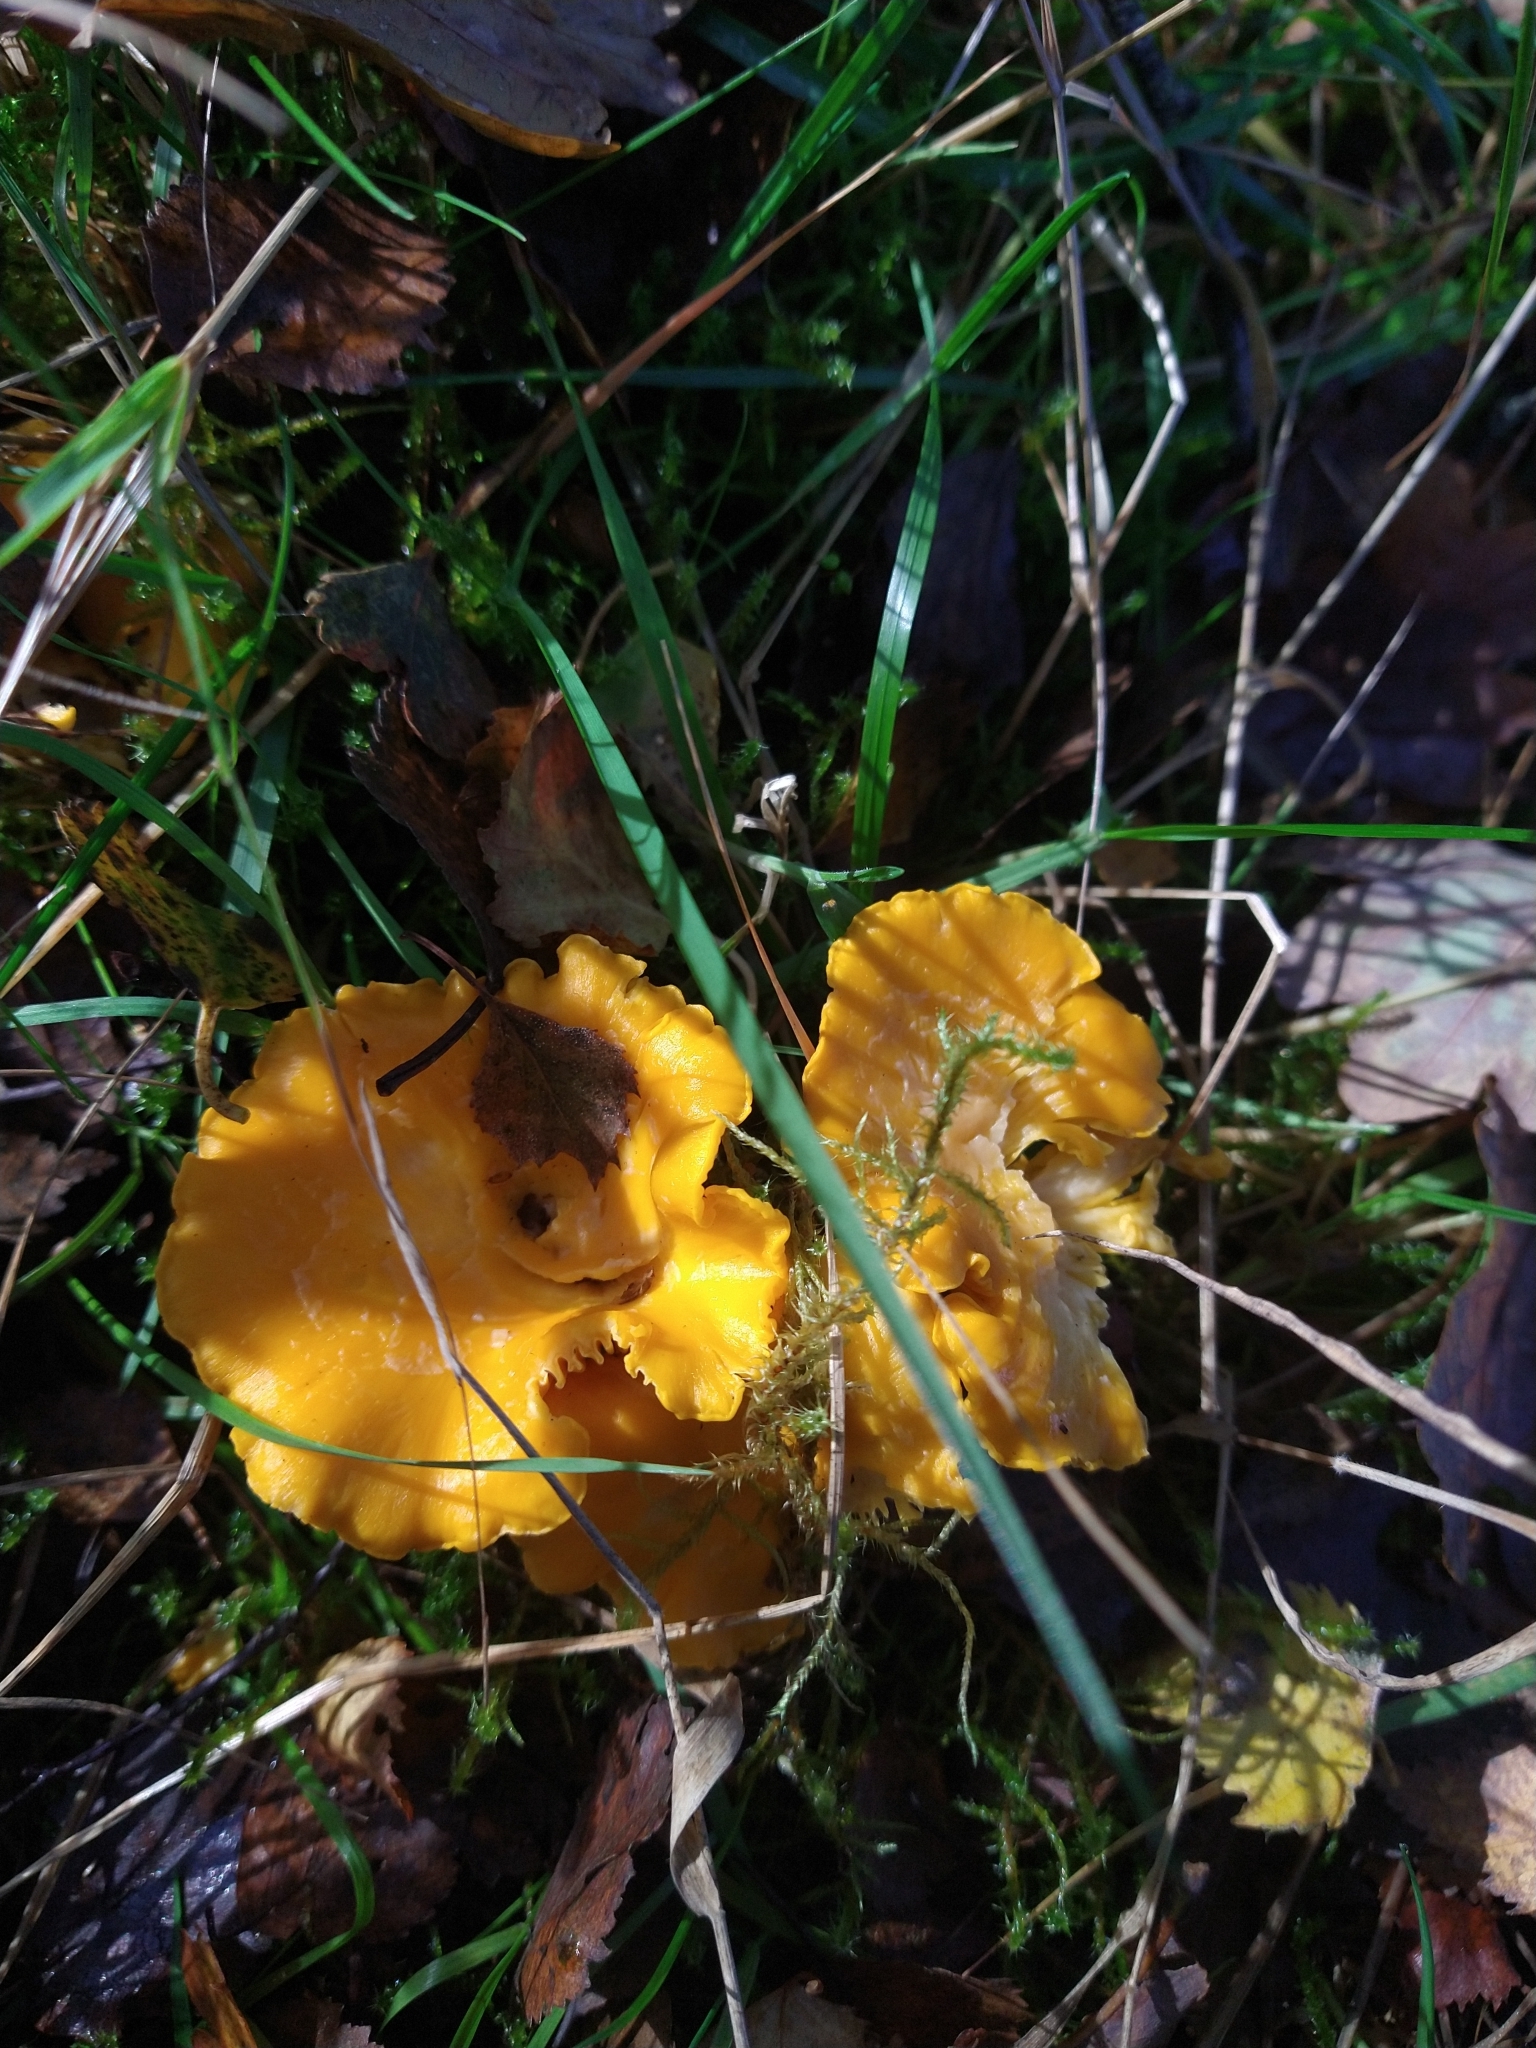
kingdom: Fungi
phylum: Basidiomycota
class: Agaricomycetes
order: Cantharellales
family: Hydnaceae
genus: Cantharellus
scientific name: Cantharellus cibarius
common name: Chanterelle
